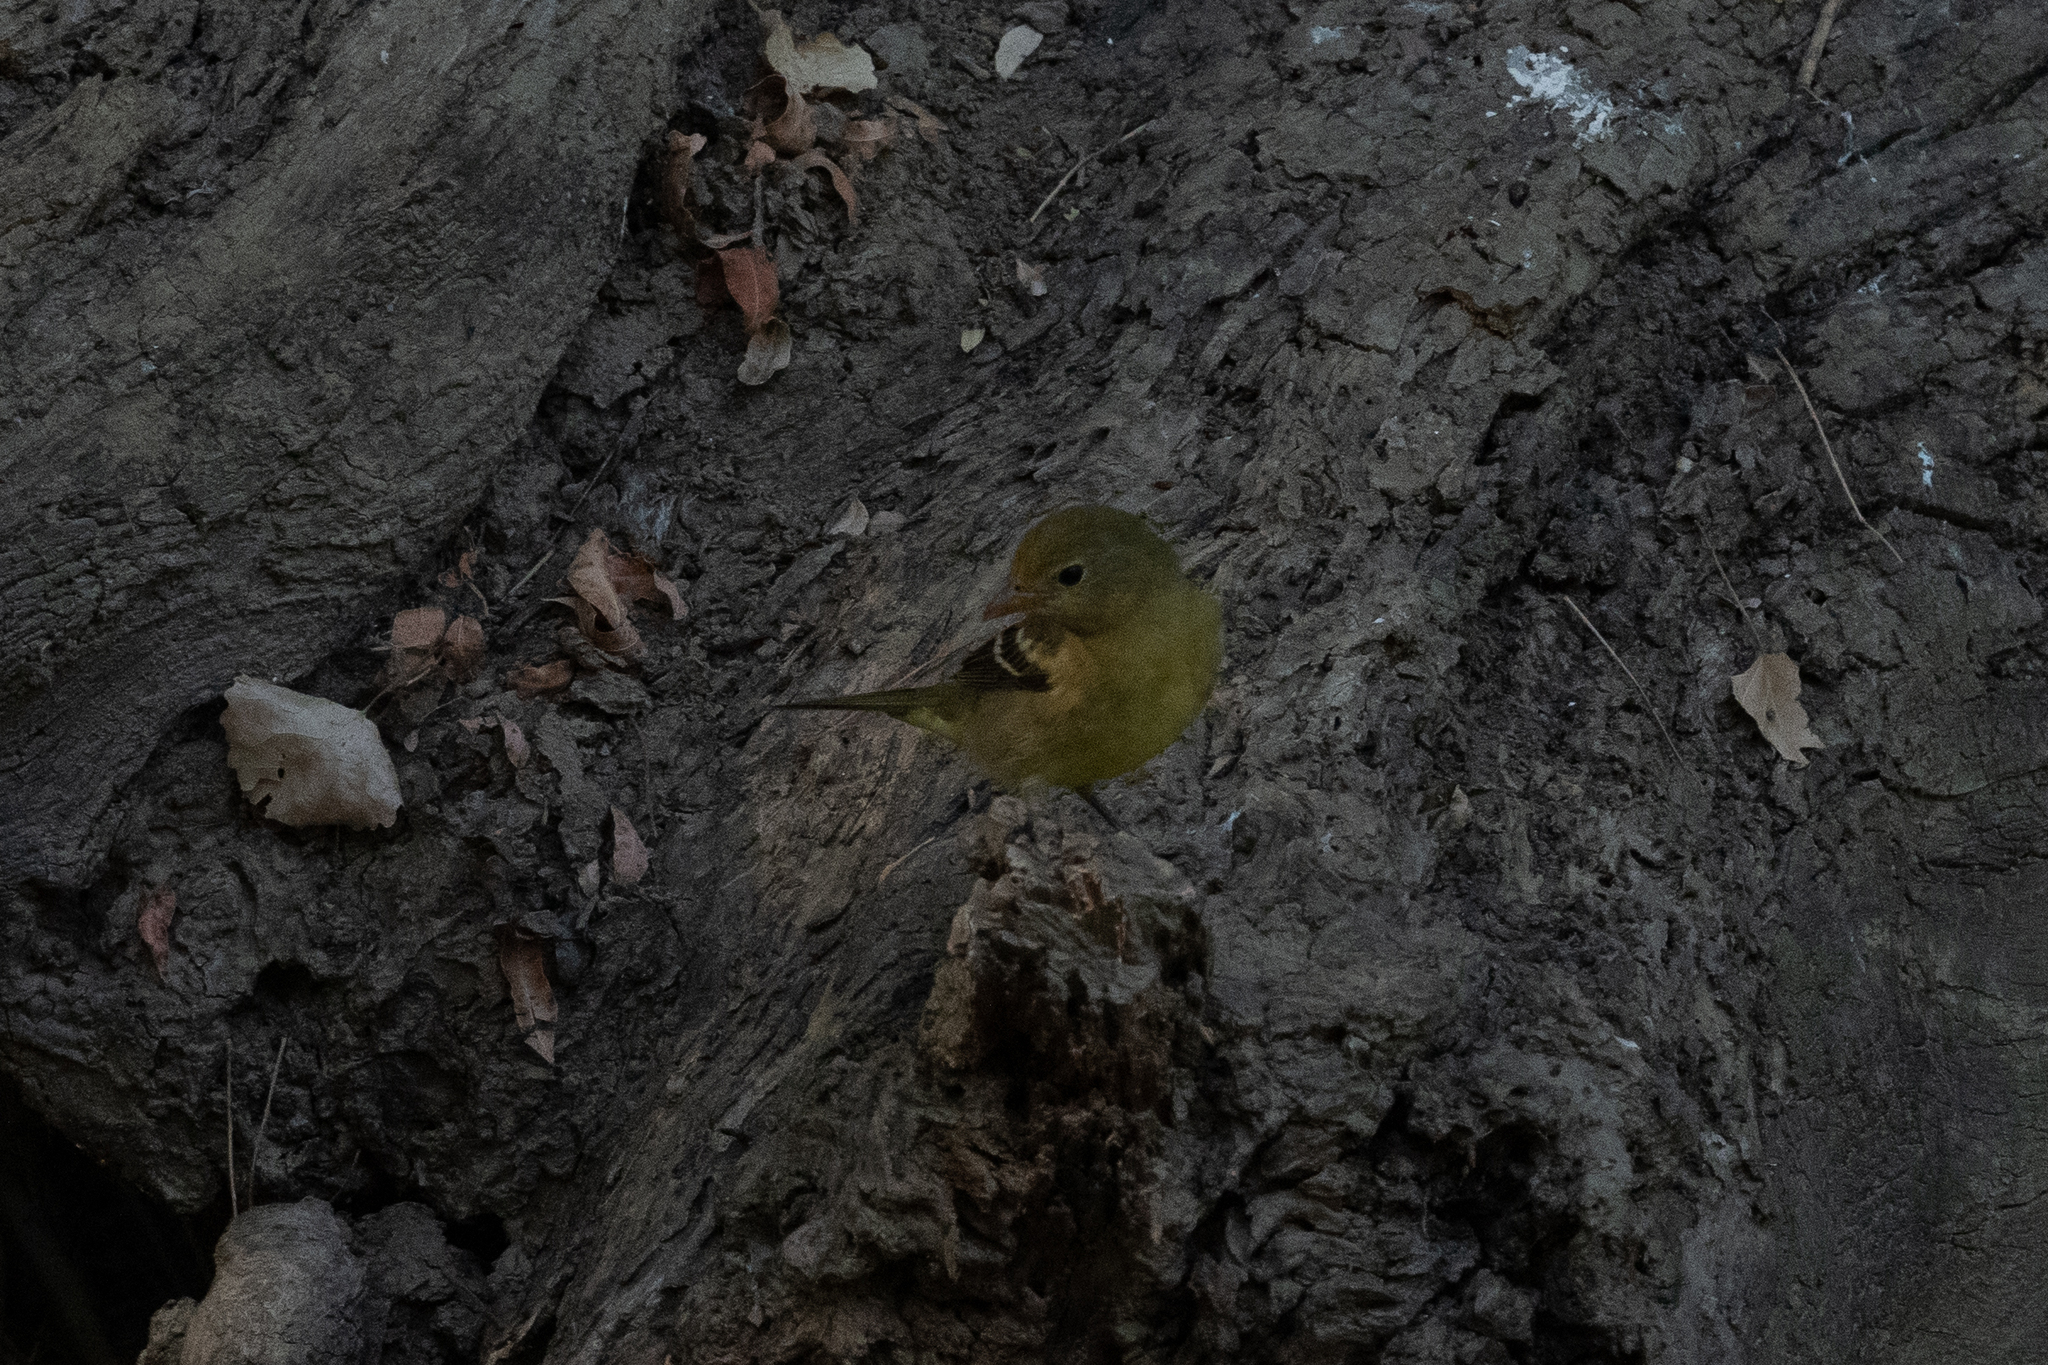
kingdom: Animalia
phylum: Chordata
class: Aves
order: Passeriformes
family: Cardinalidae
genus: Piranga
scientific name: Piranga ludoviciana
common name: Western tanager
